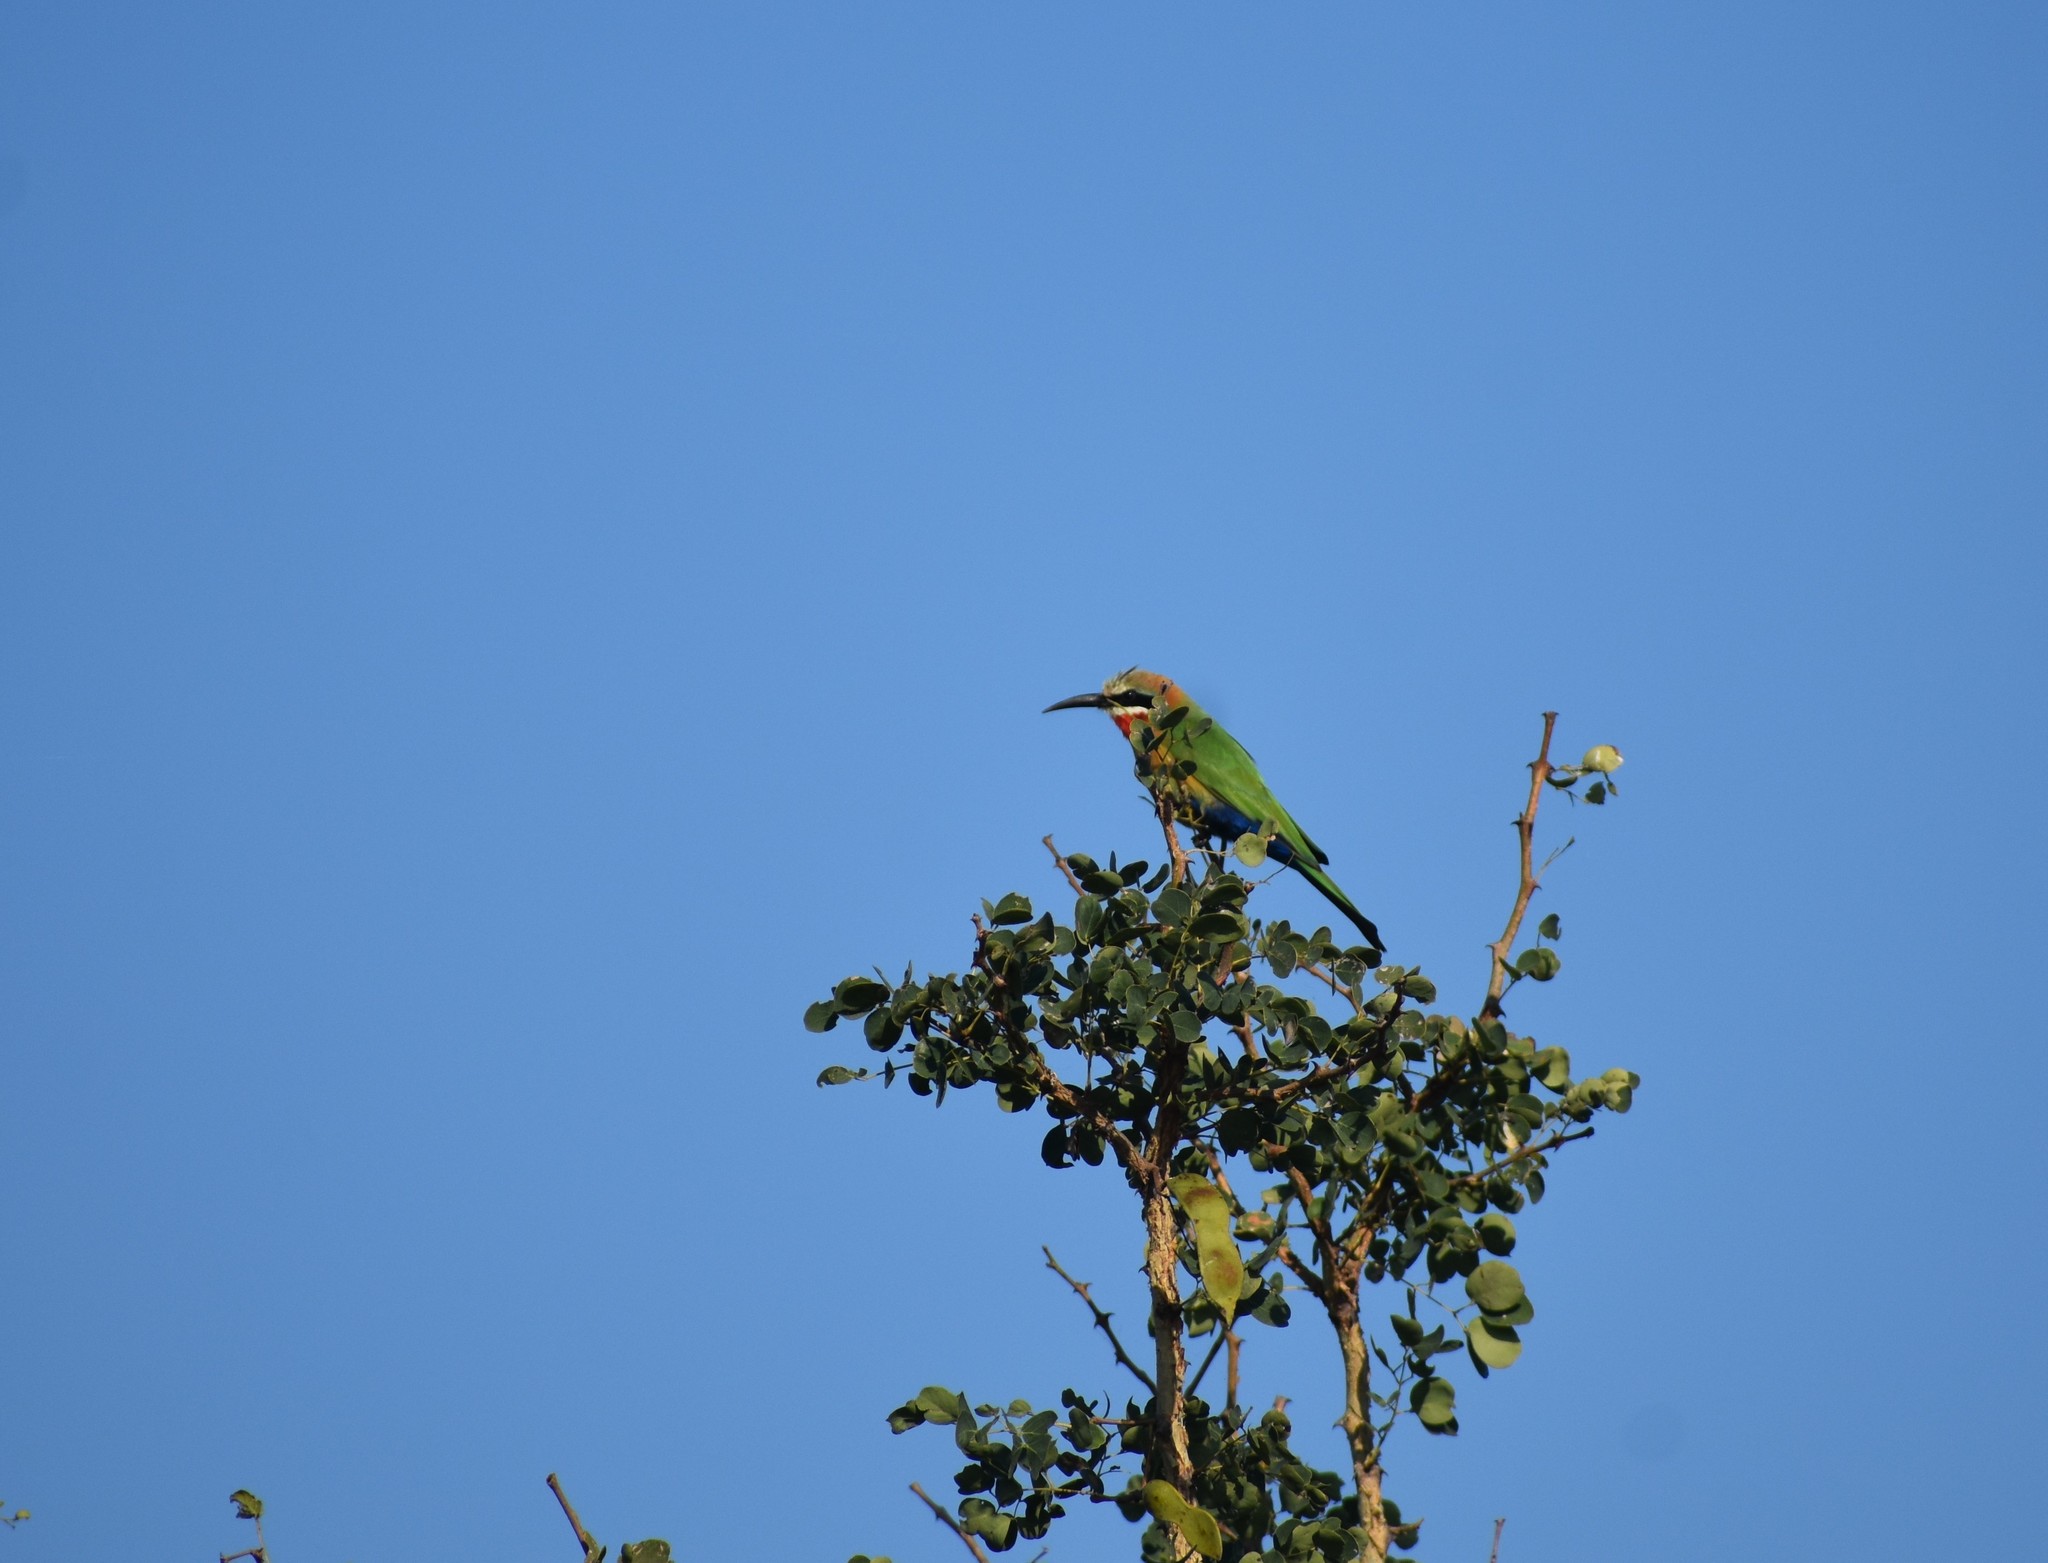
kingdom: Animalia
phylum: Chordata
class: Aves
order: Coraciiformes
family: Meropidae
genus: Merops
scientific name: Merops bullockoides
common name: White-fronted bee-eater
